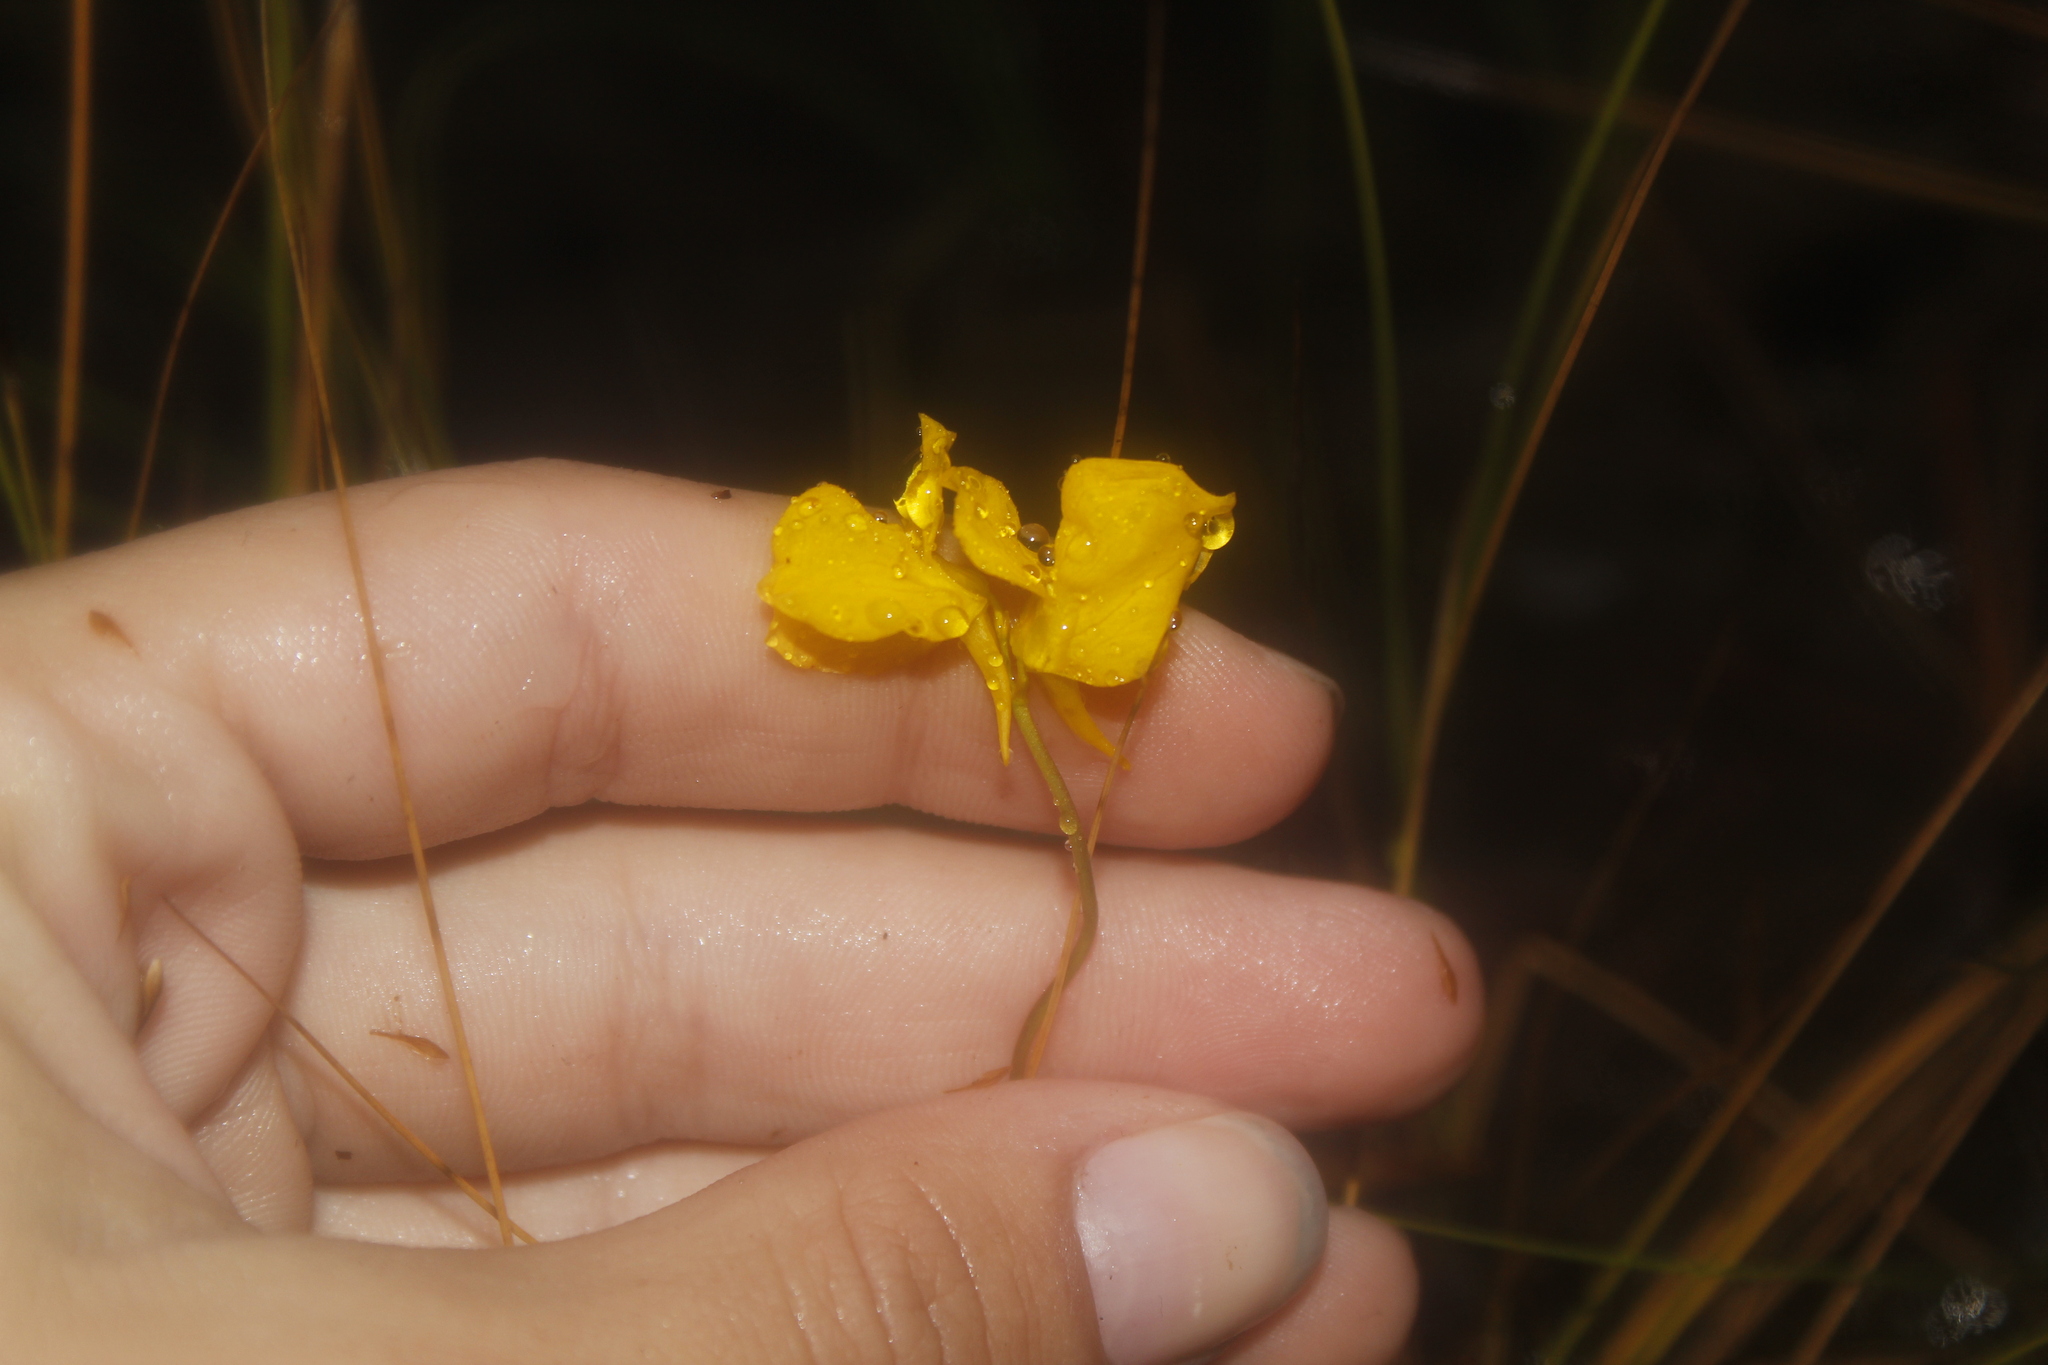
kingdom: Plantae
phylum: Tracheophyta
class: Magnoliopsida
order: Lamiales
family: Lentibulariaceae
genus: Utricularia
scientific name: Utricularia cornuta
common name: Horned bladderwort
